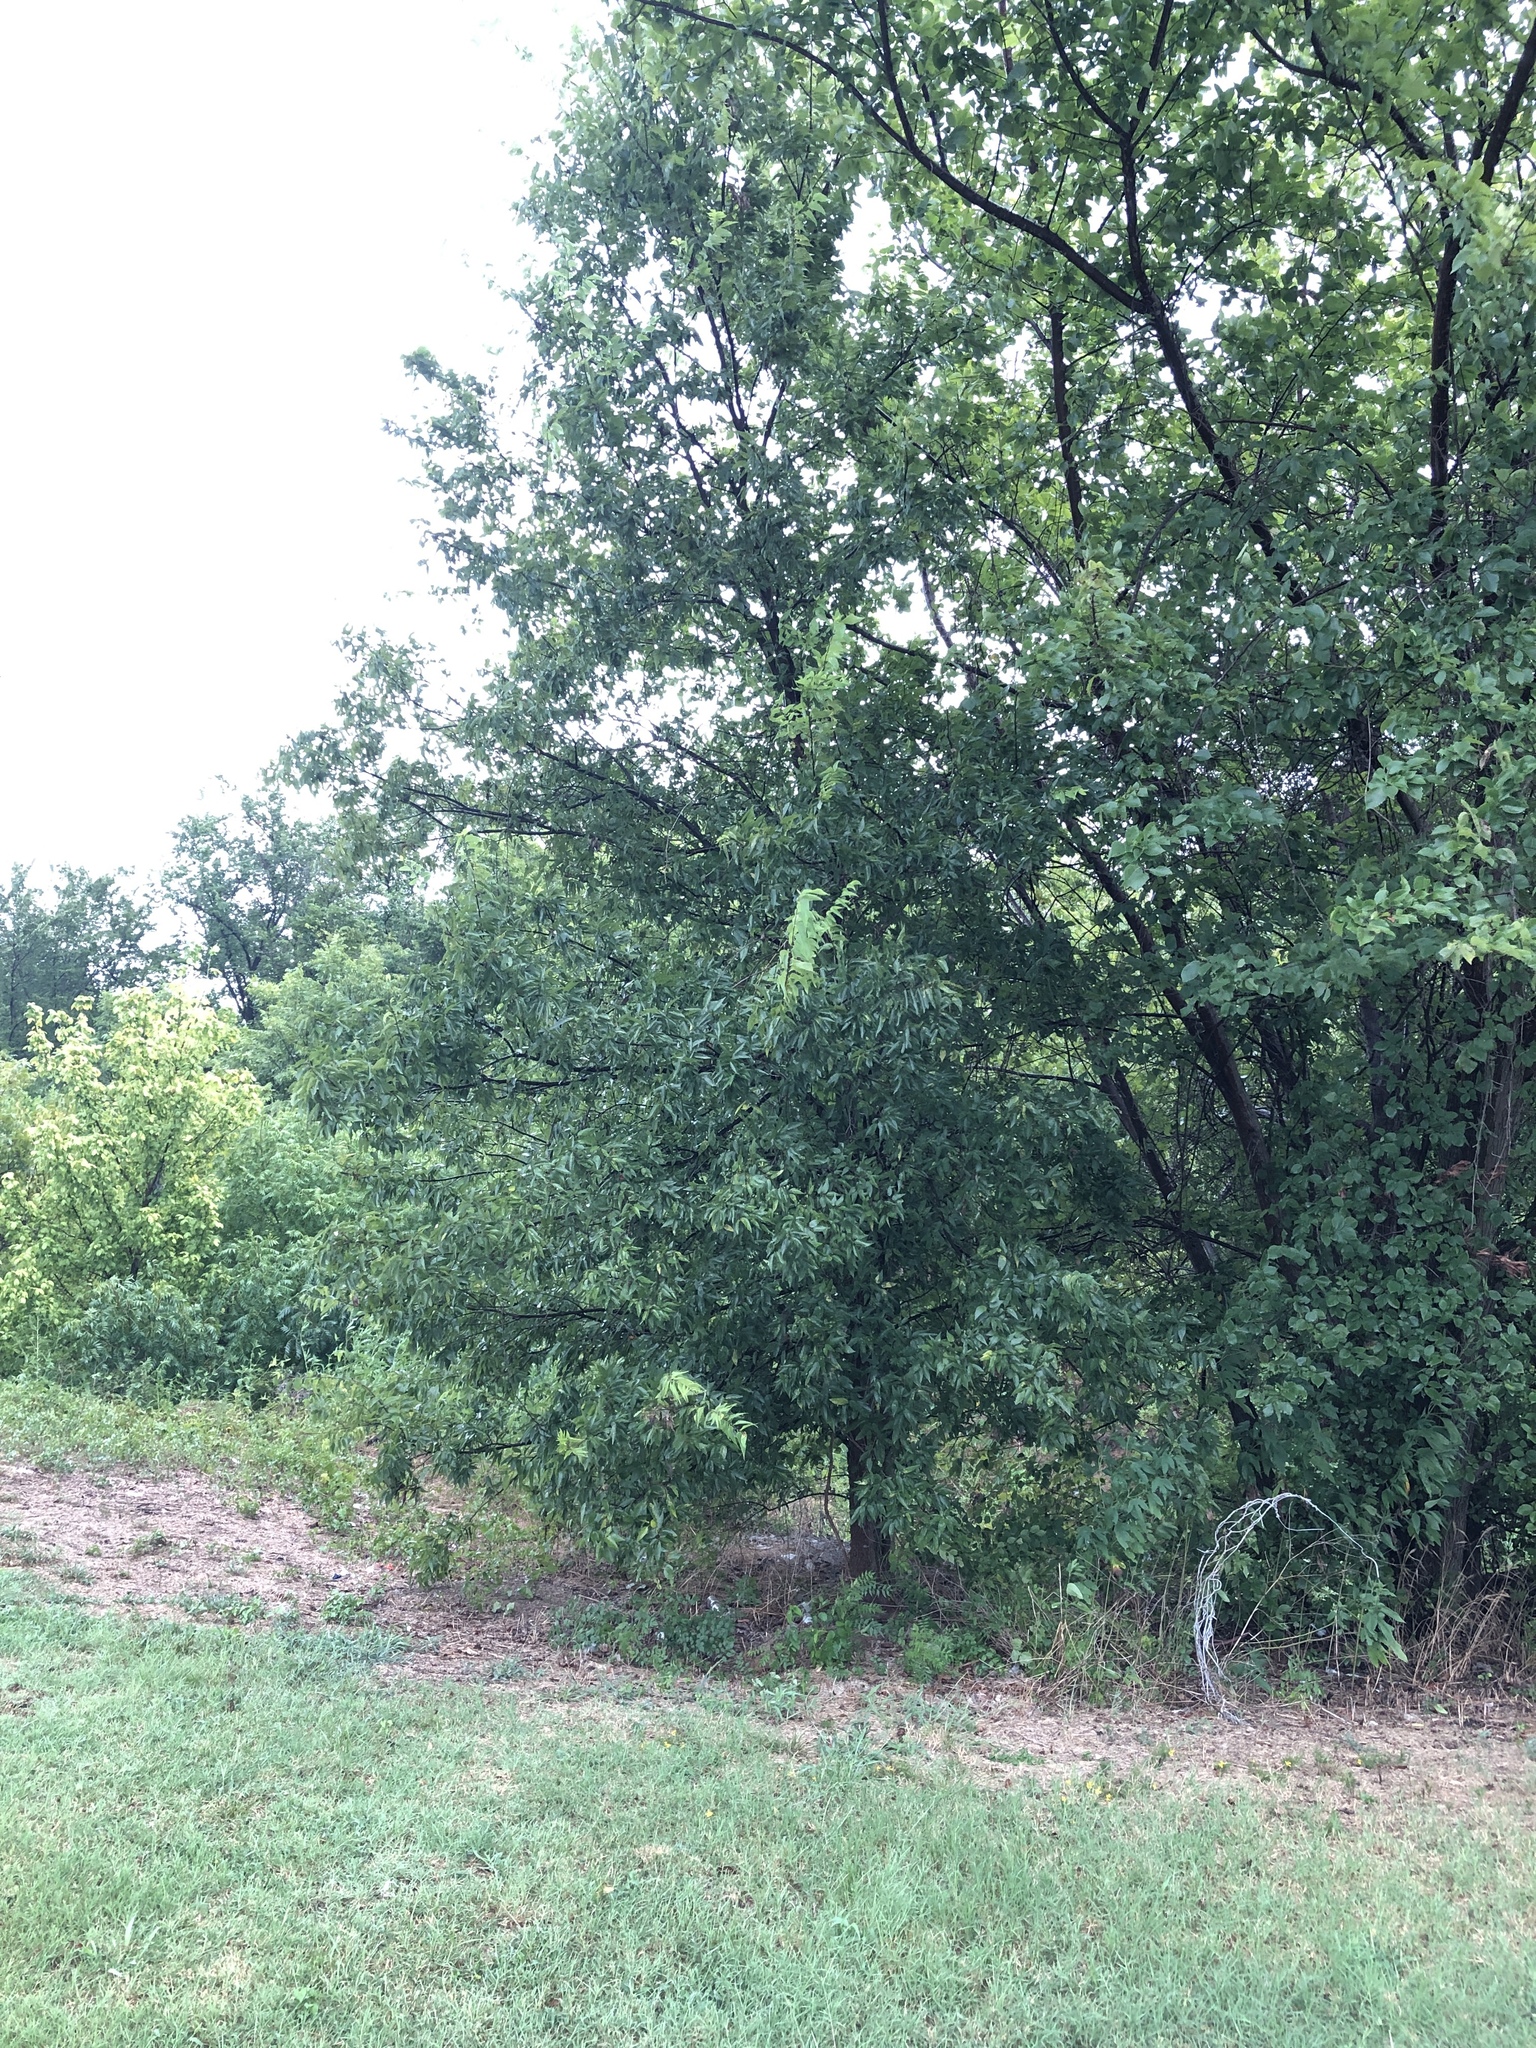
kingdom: Plantae
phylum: Tracheophyta
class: Magnoliopsida
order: Rosales
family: Cannabaceae
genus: Celtis
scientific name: Celtis laevigata
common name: Sugarberry
